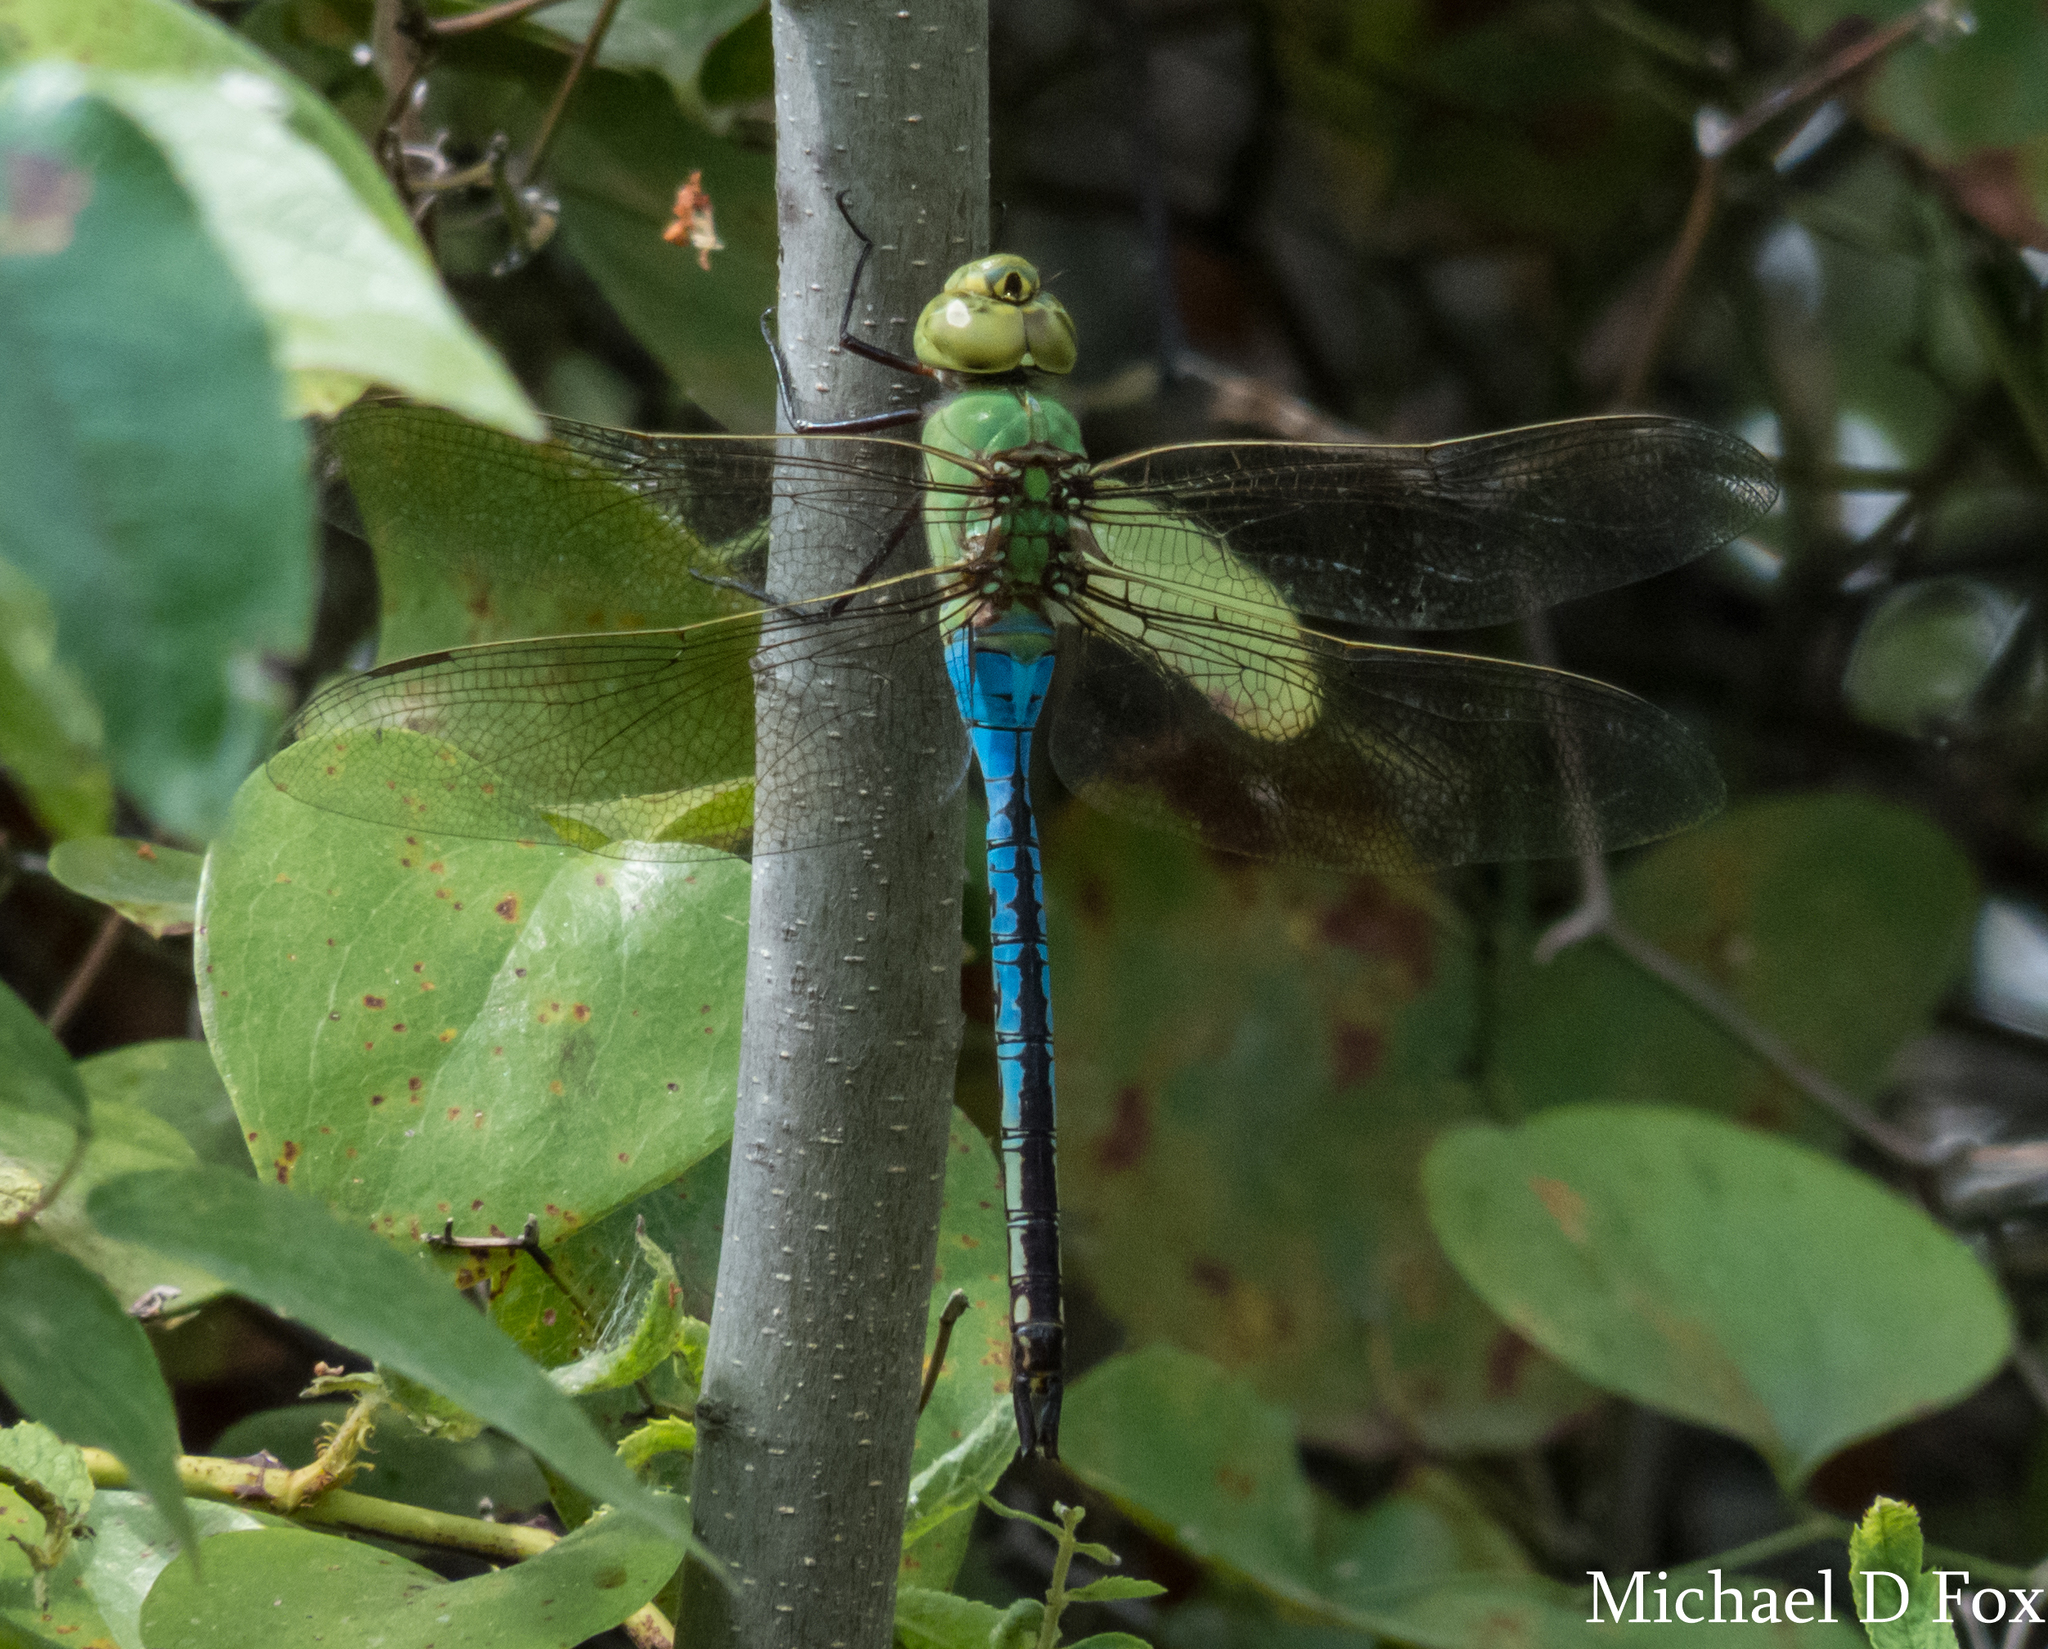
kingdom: Animalia
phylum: Arthropoda
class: Insecta
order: Odonata
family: Aeshnidae
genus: Anax
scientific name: Anax junius
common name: Common green darner
